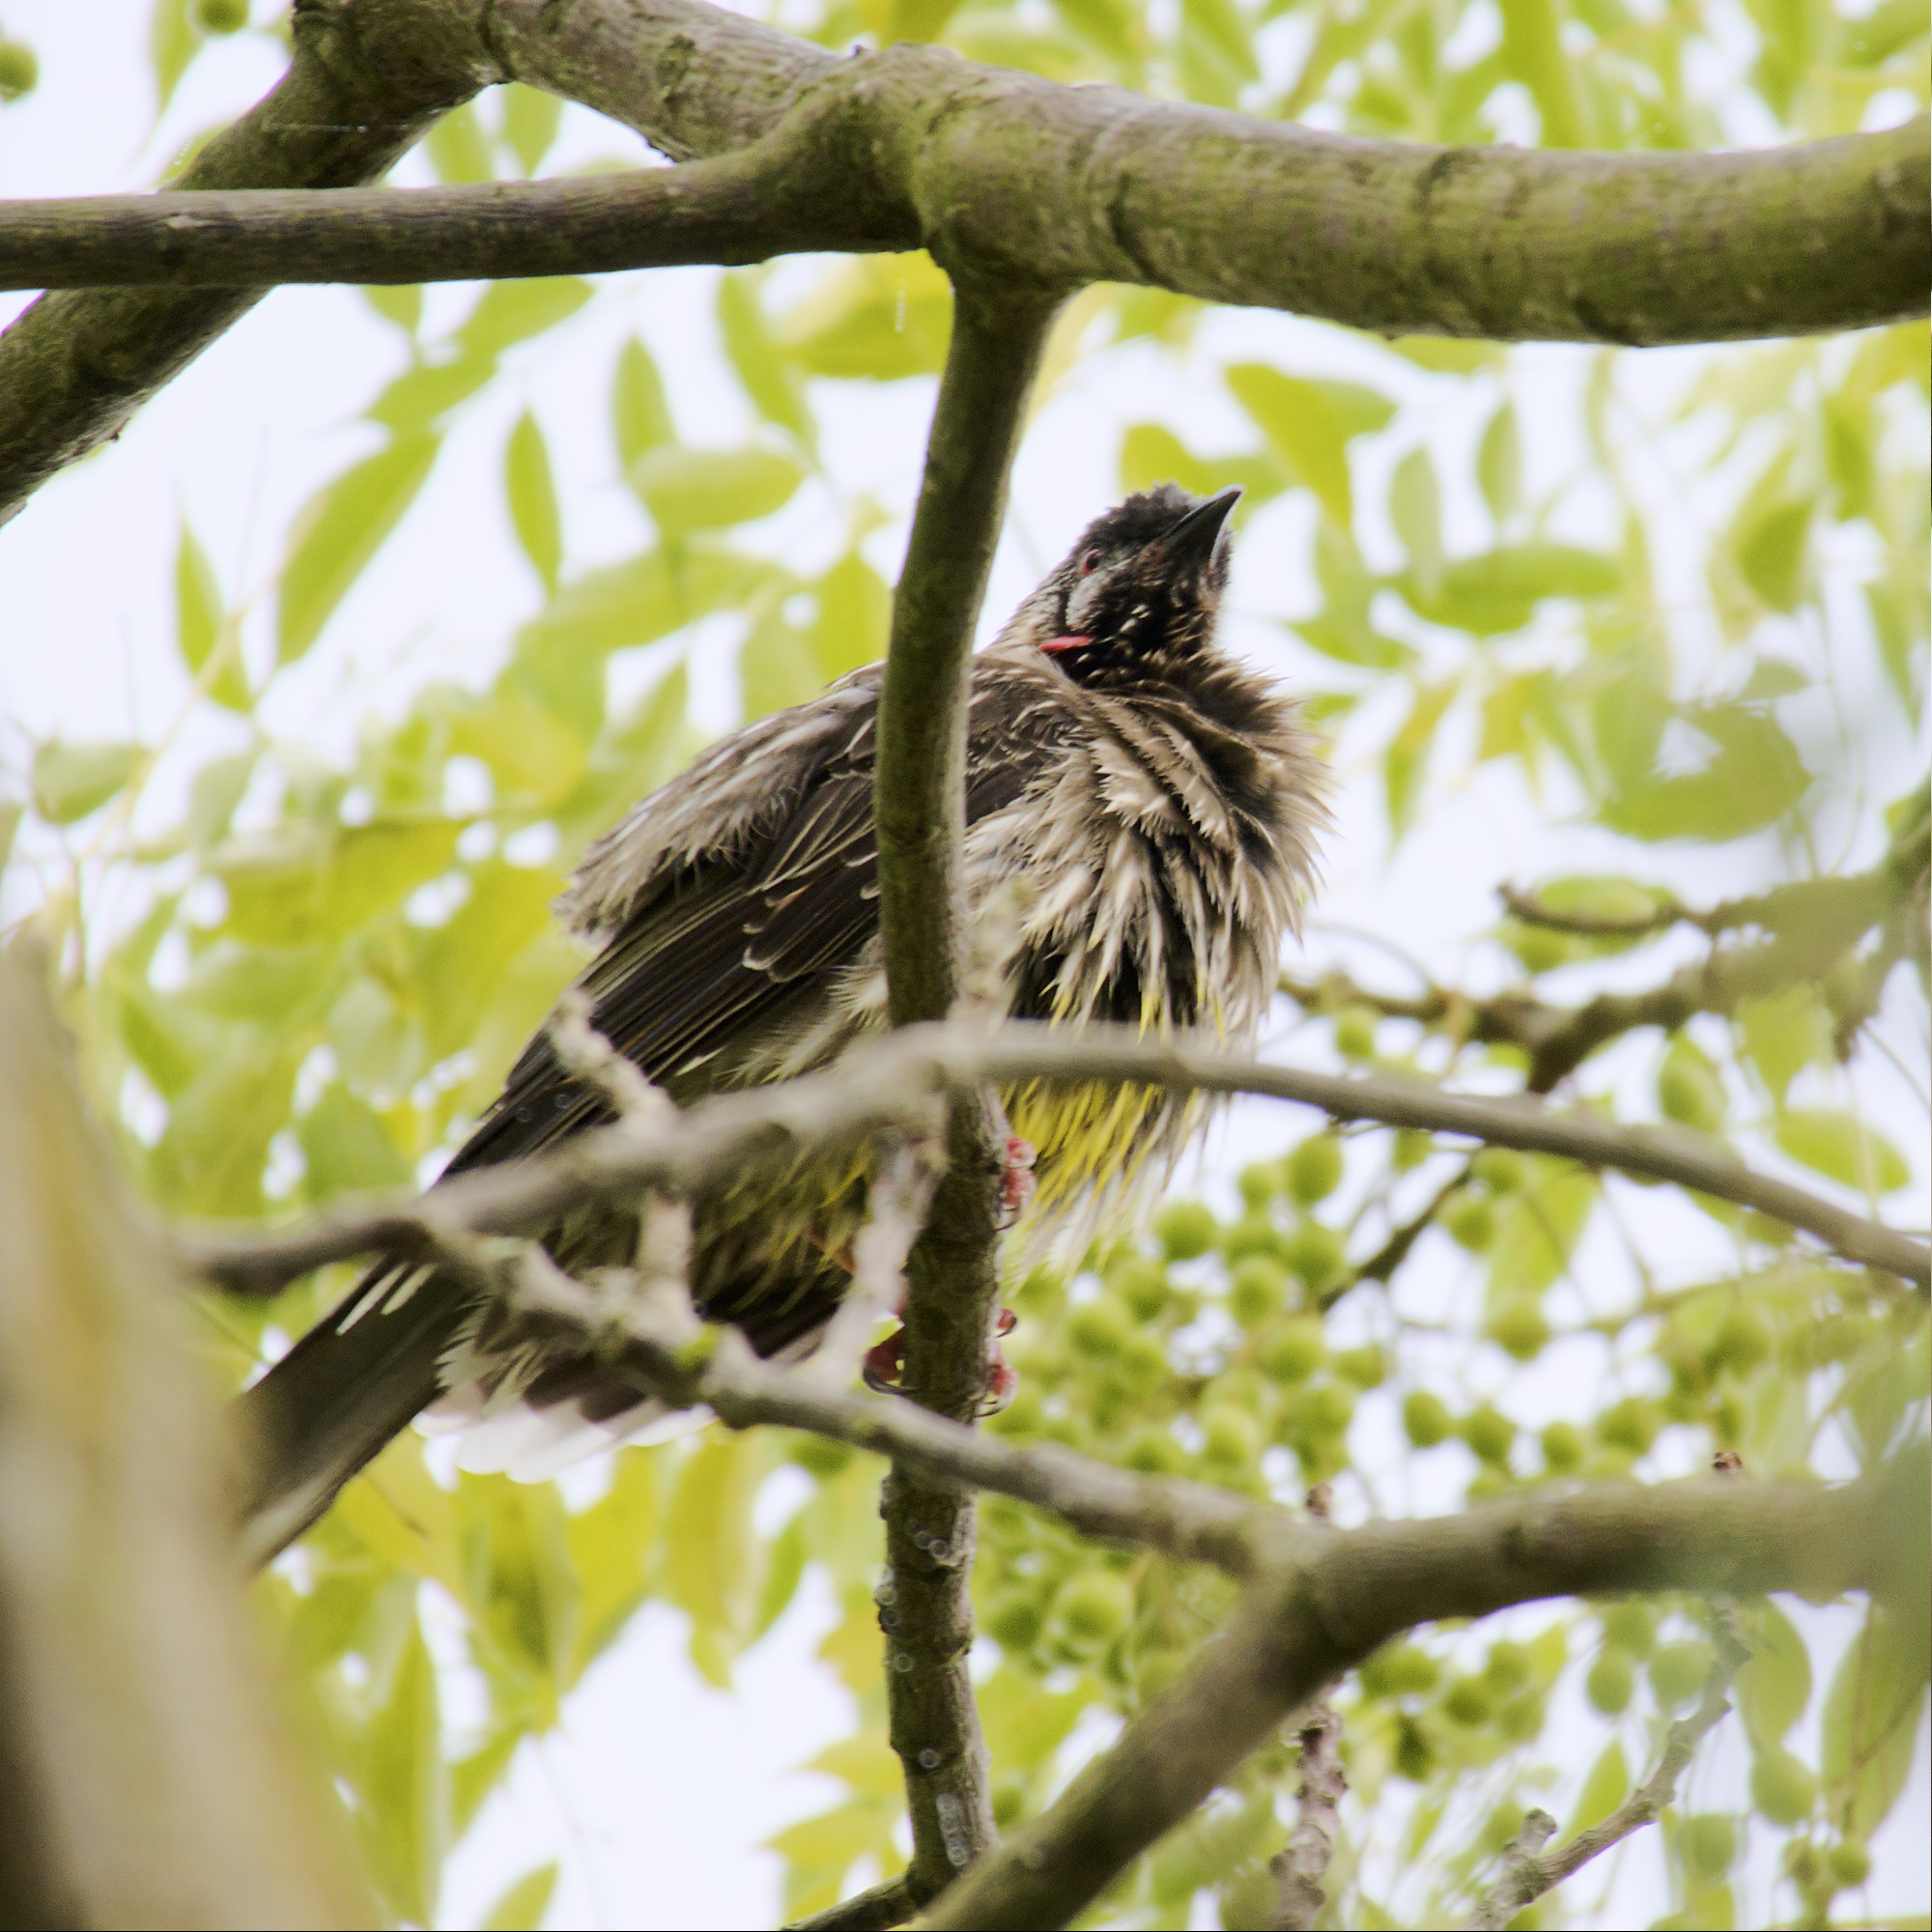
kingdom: Animalia
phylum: Chordata
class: Aves
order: Passeriformes
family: Meliphagidae
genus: Anthochaera
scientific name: Anthochaera carunculata
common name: Red wattlebird
